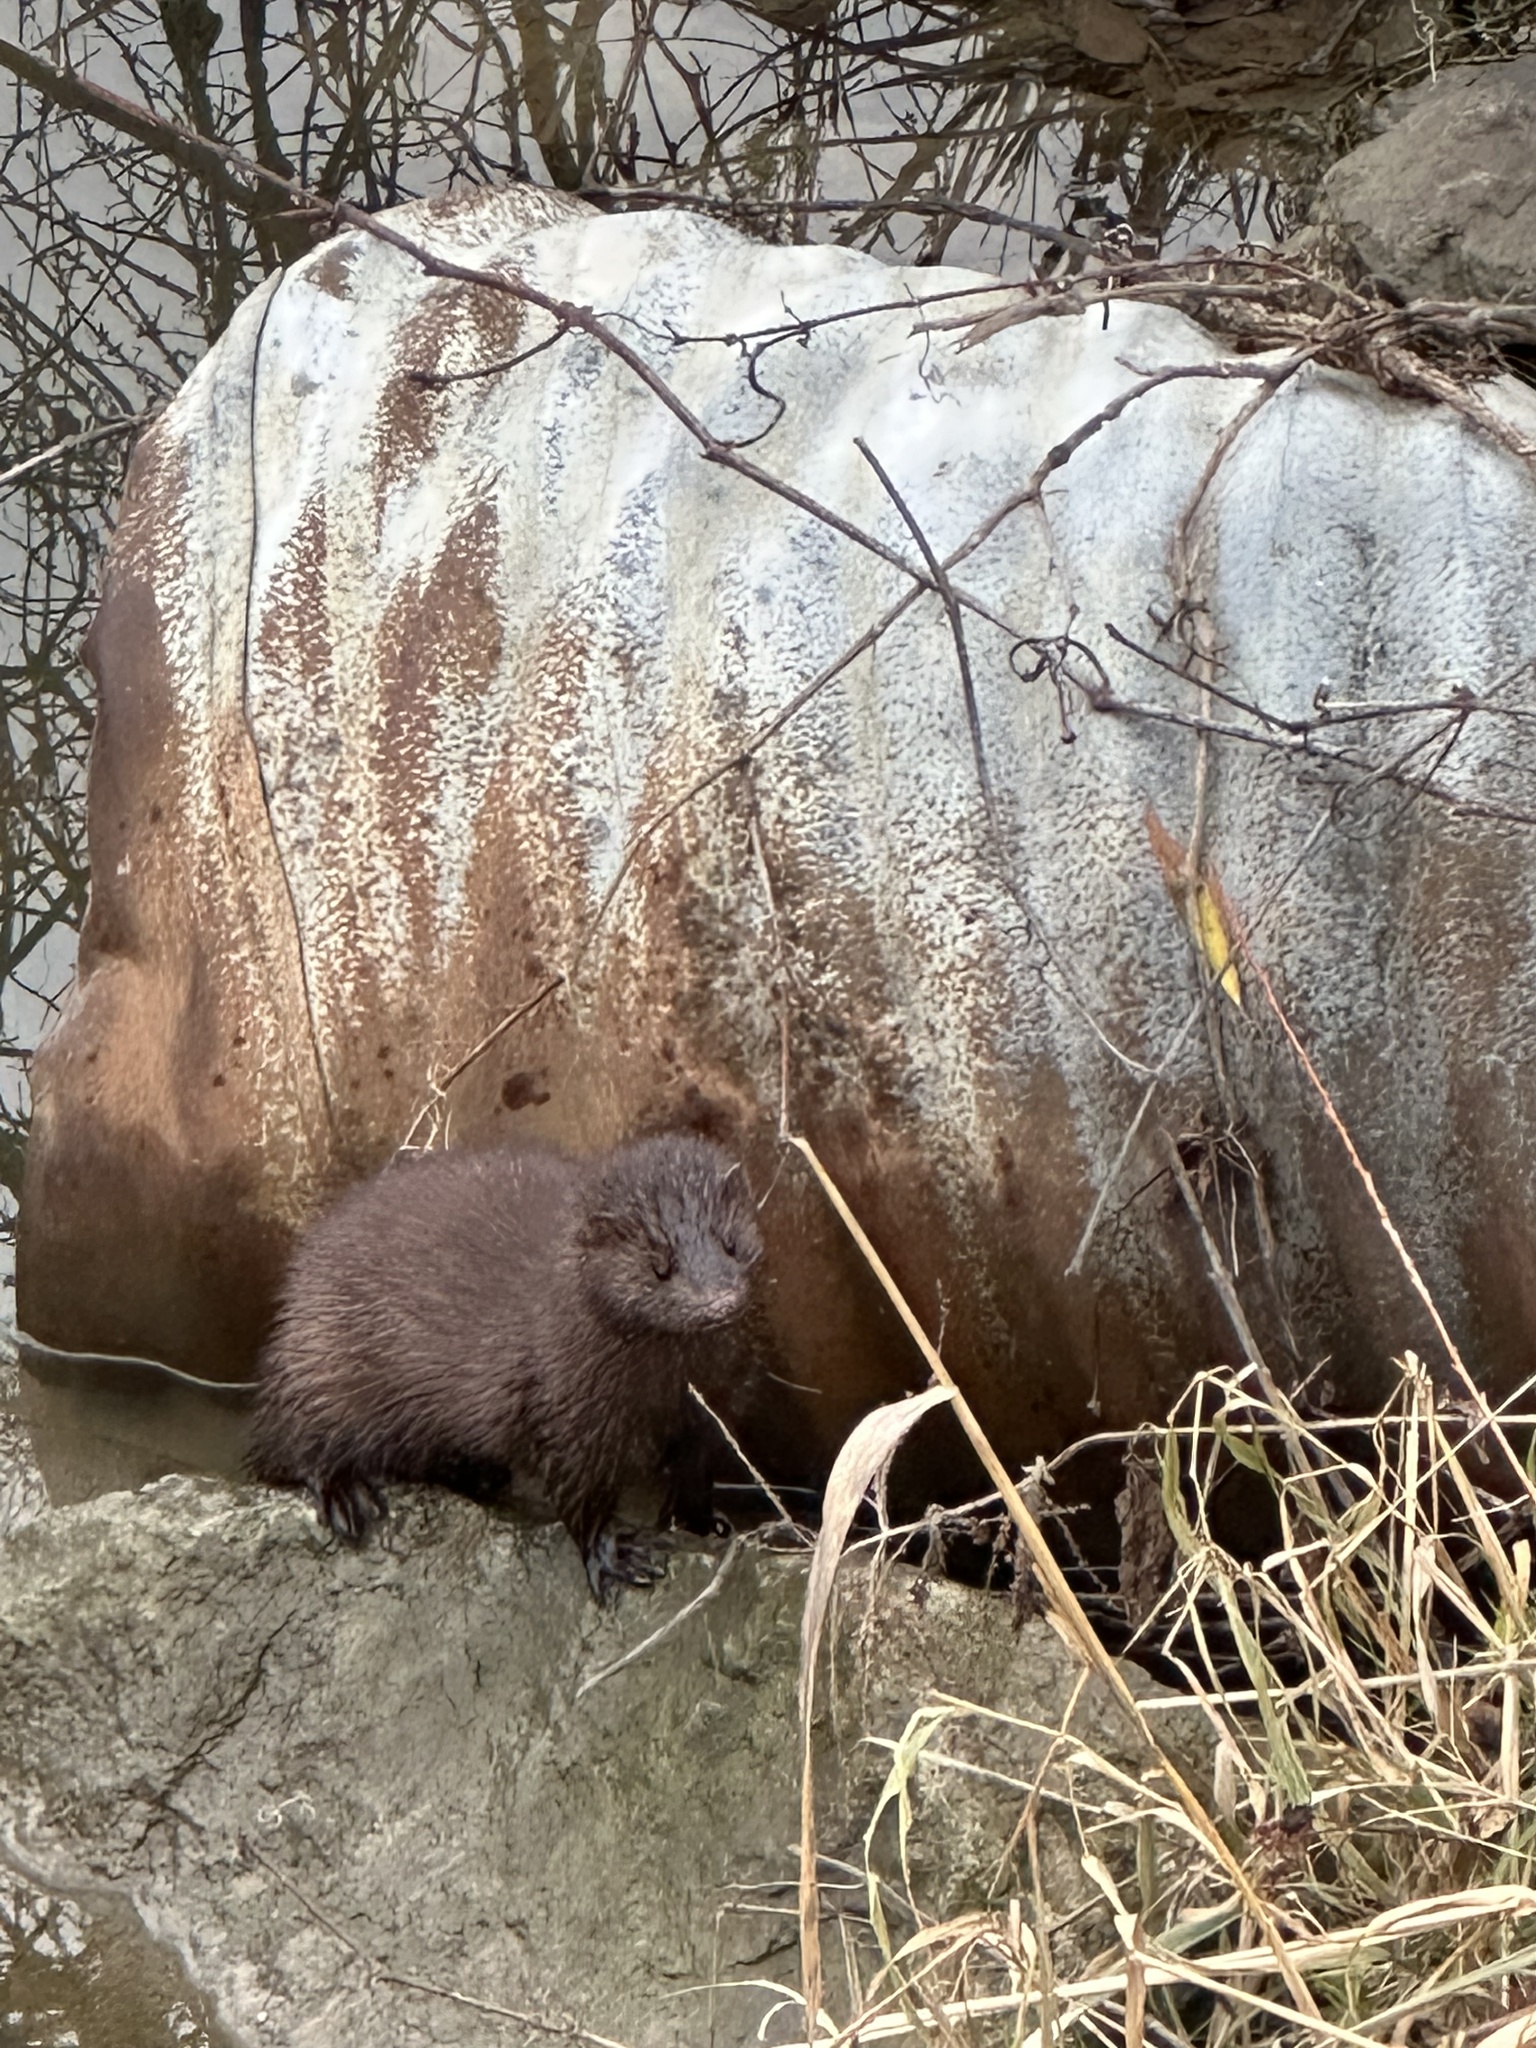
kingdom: Animalia
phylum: Chordata
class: Mammalia
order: Carnivora
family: Mustelidae
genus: Mustela
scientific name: Mustela
